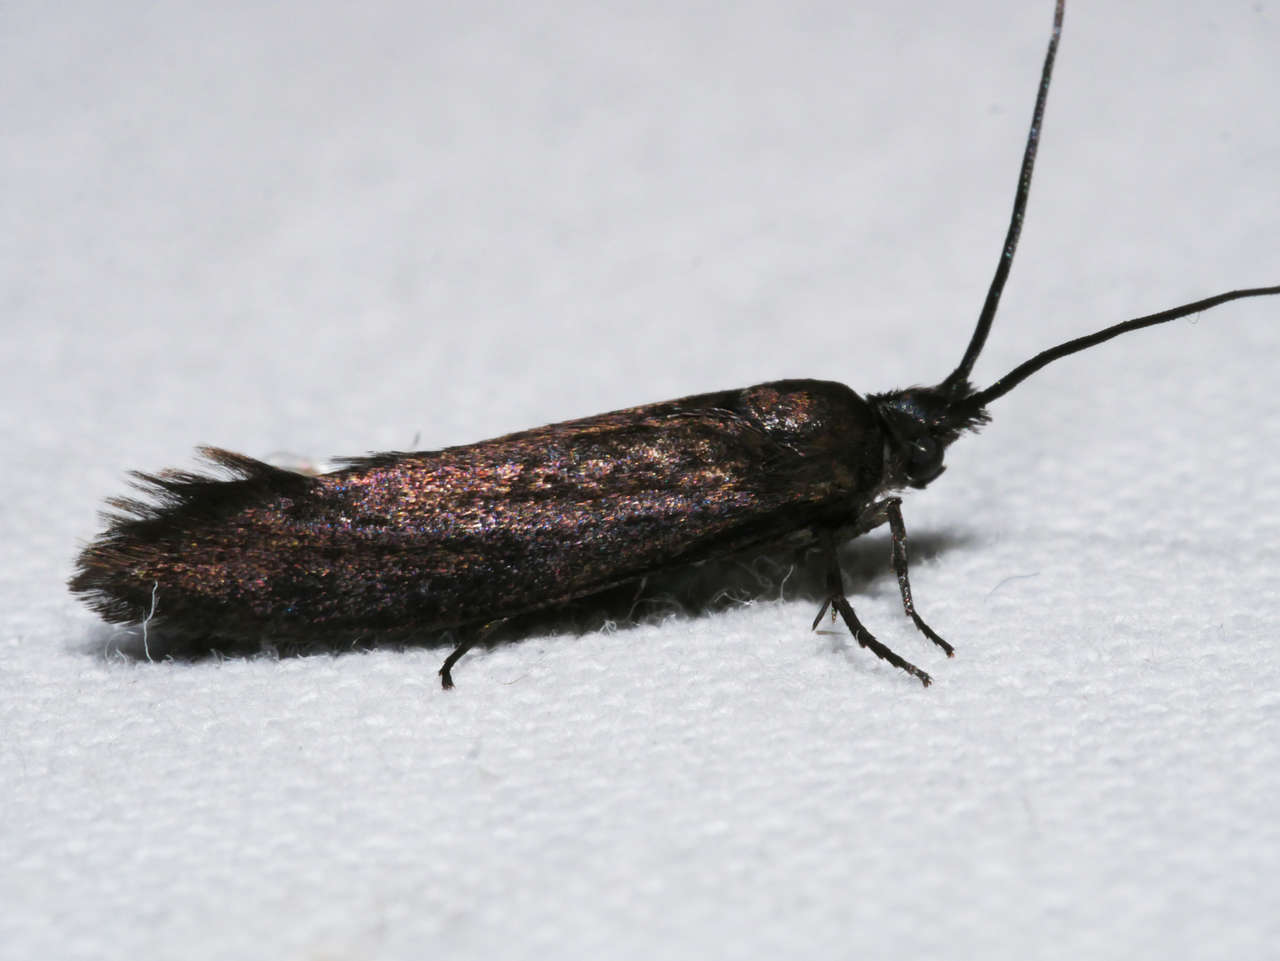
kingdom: Animalia
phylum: Arthropoda
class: Insecta
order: Lepidoptera
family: Plutellidae
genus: Tritymba
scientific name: Tritymba
